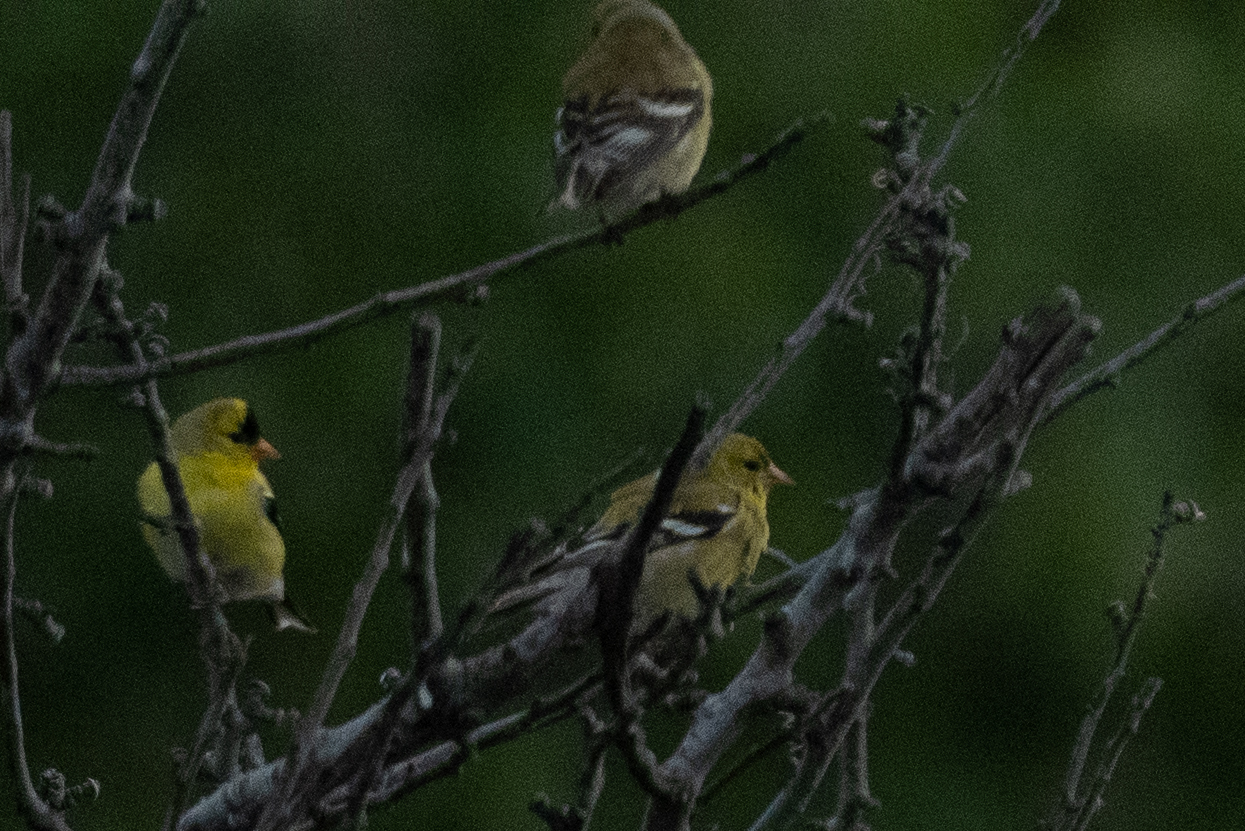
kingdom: Animalia
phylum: Chordata
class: Aves
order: Passeriformes
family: Fringillidae
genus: Spinus
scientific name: Spinus tristis
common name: American goldfinch
